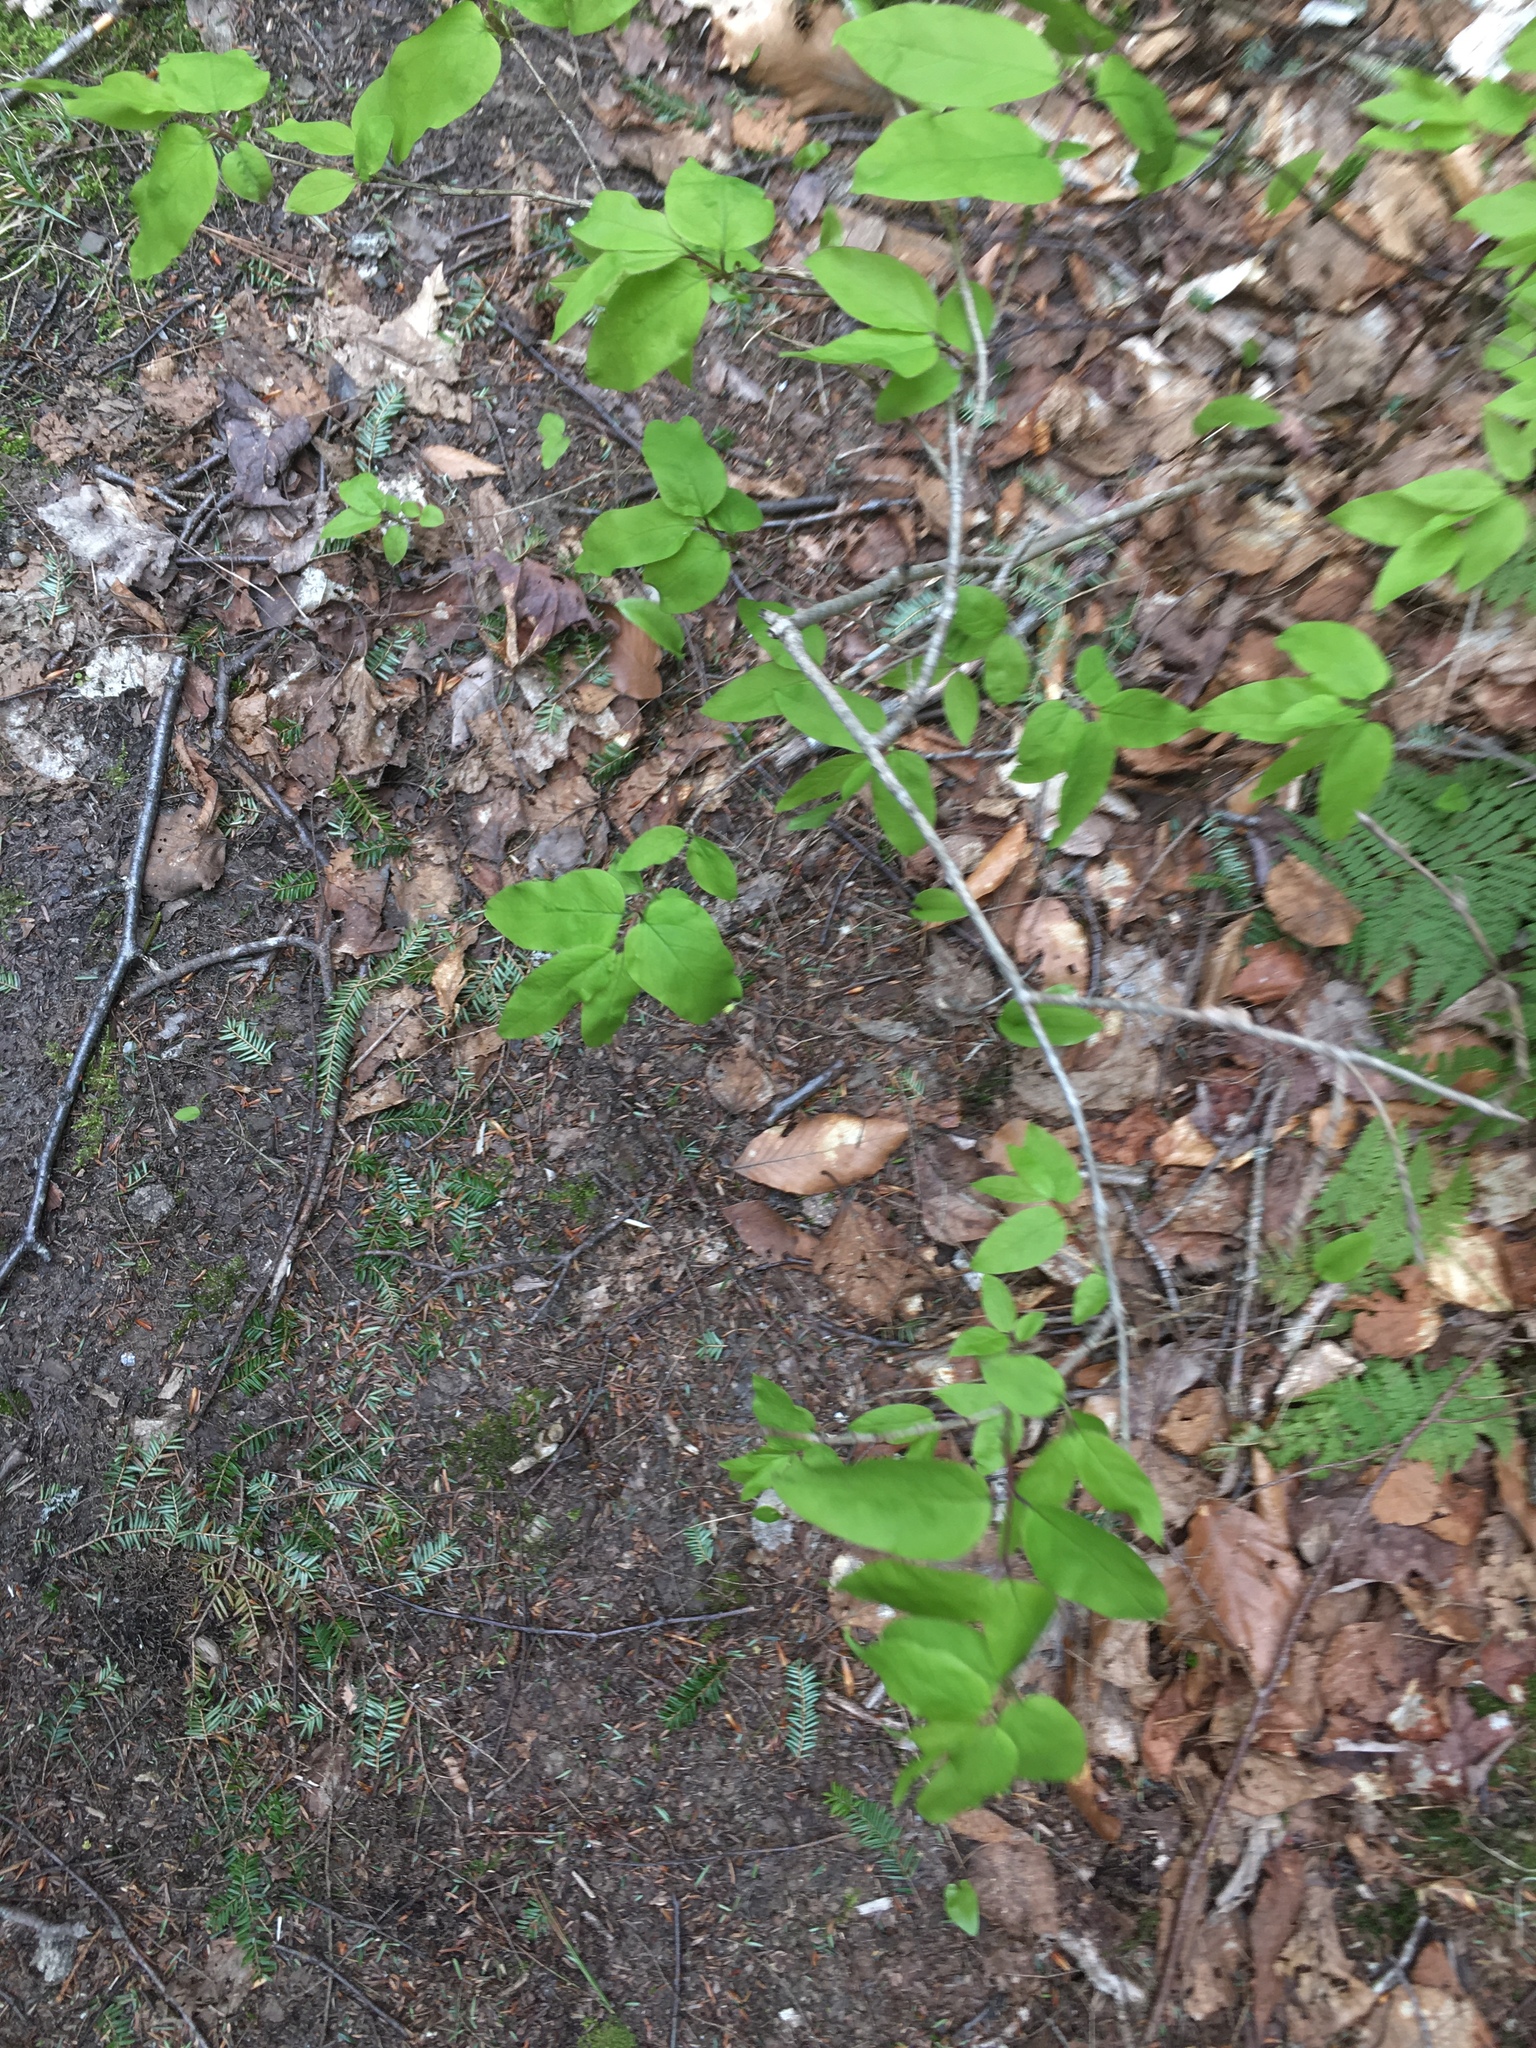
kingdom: Plantae
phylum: Tracheophyta
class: Magnoliopsida
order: Dipsacales
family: Caprifoliaceae
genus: Lonicera
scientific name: Lonicera canadensis
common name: American fly-honeysuckle
